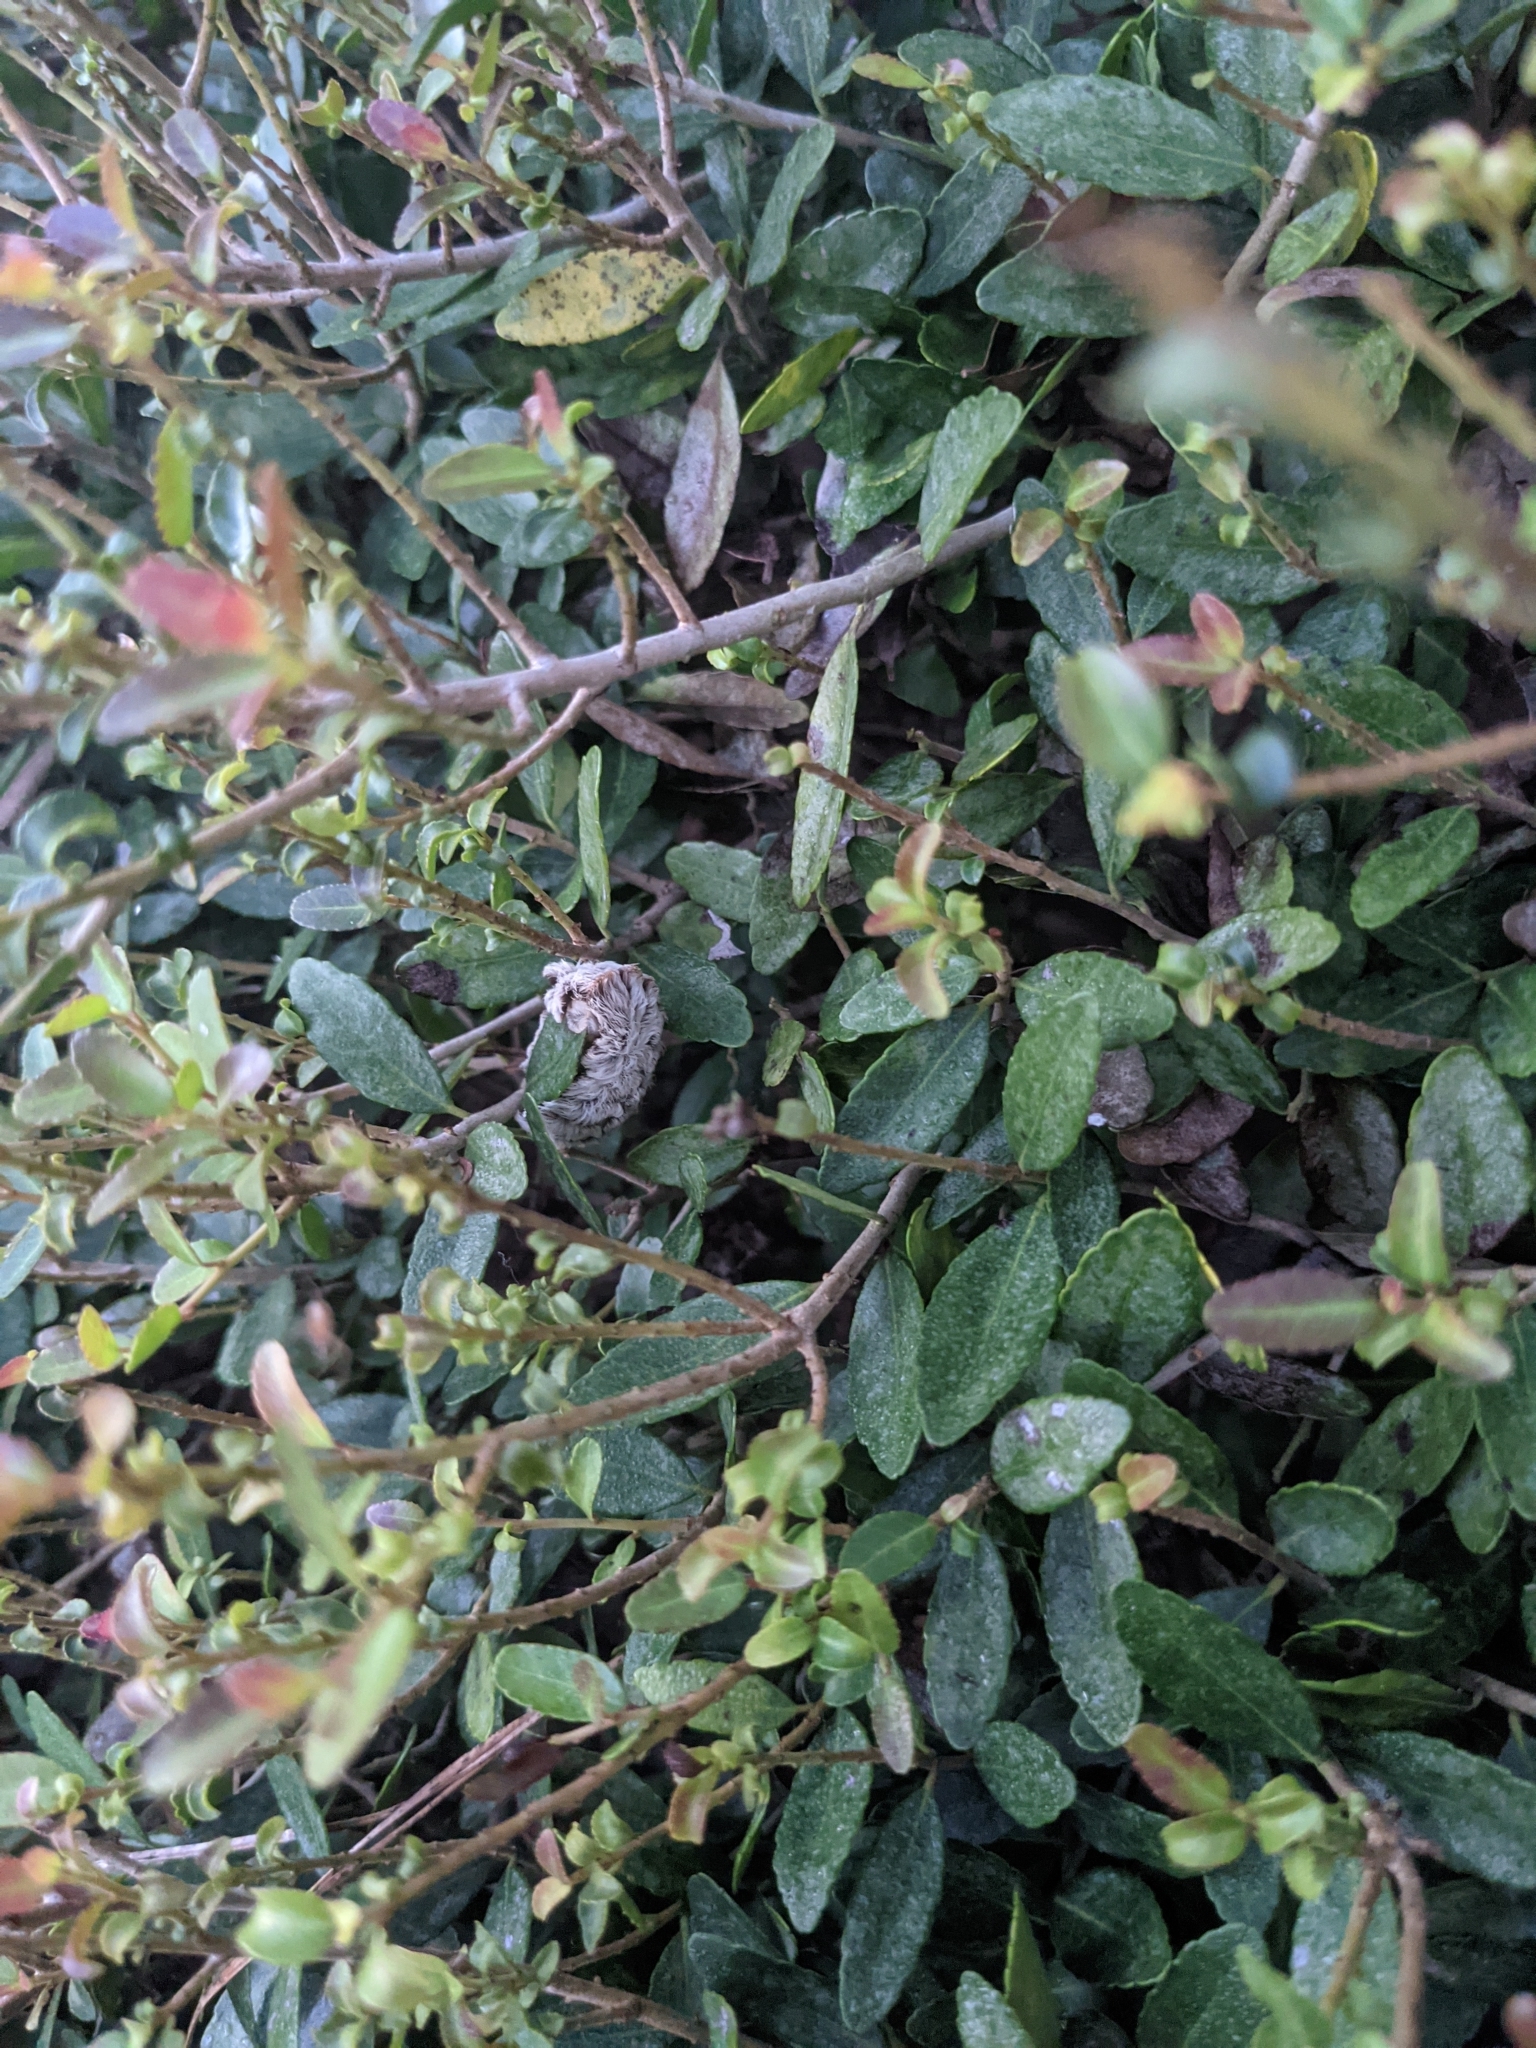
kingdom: Animalia
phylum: Arthropoda
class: Insecta
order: Lepidoptera
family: Megalopygidae
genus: Megalopyge
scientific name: Megalopyge opercularis
